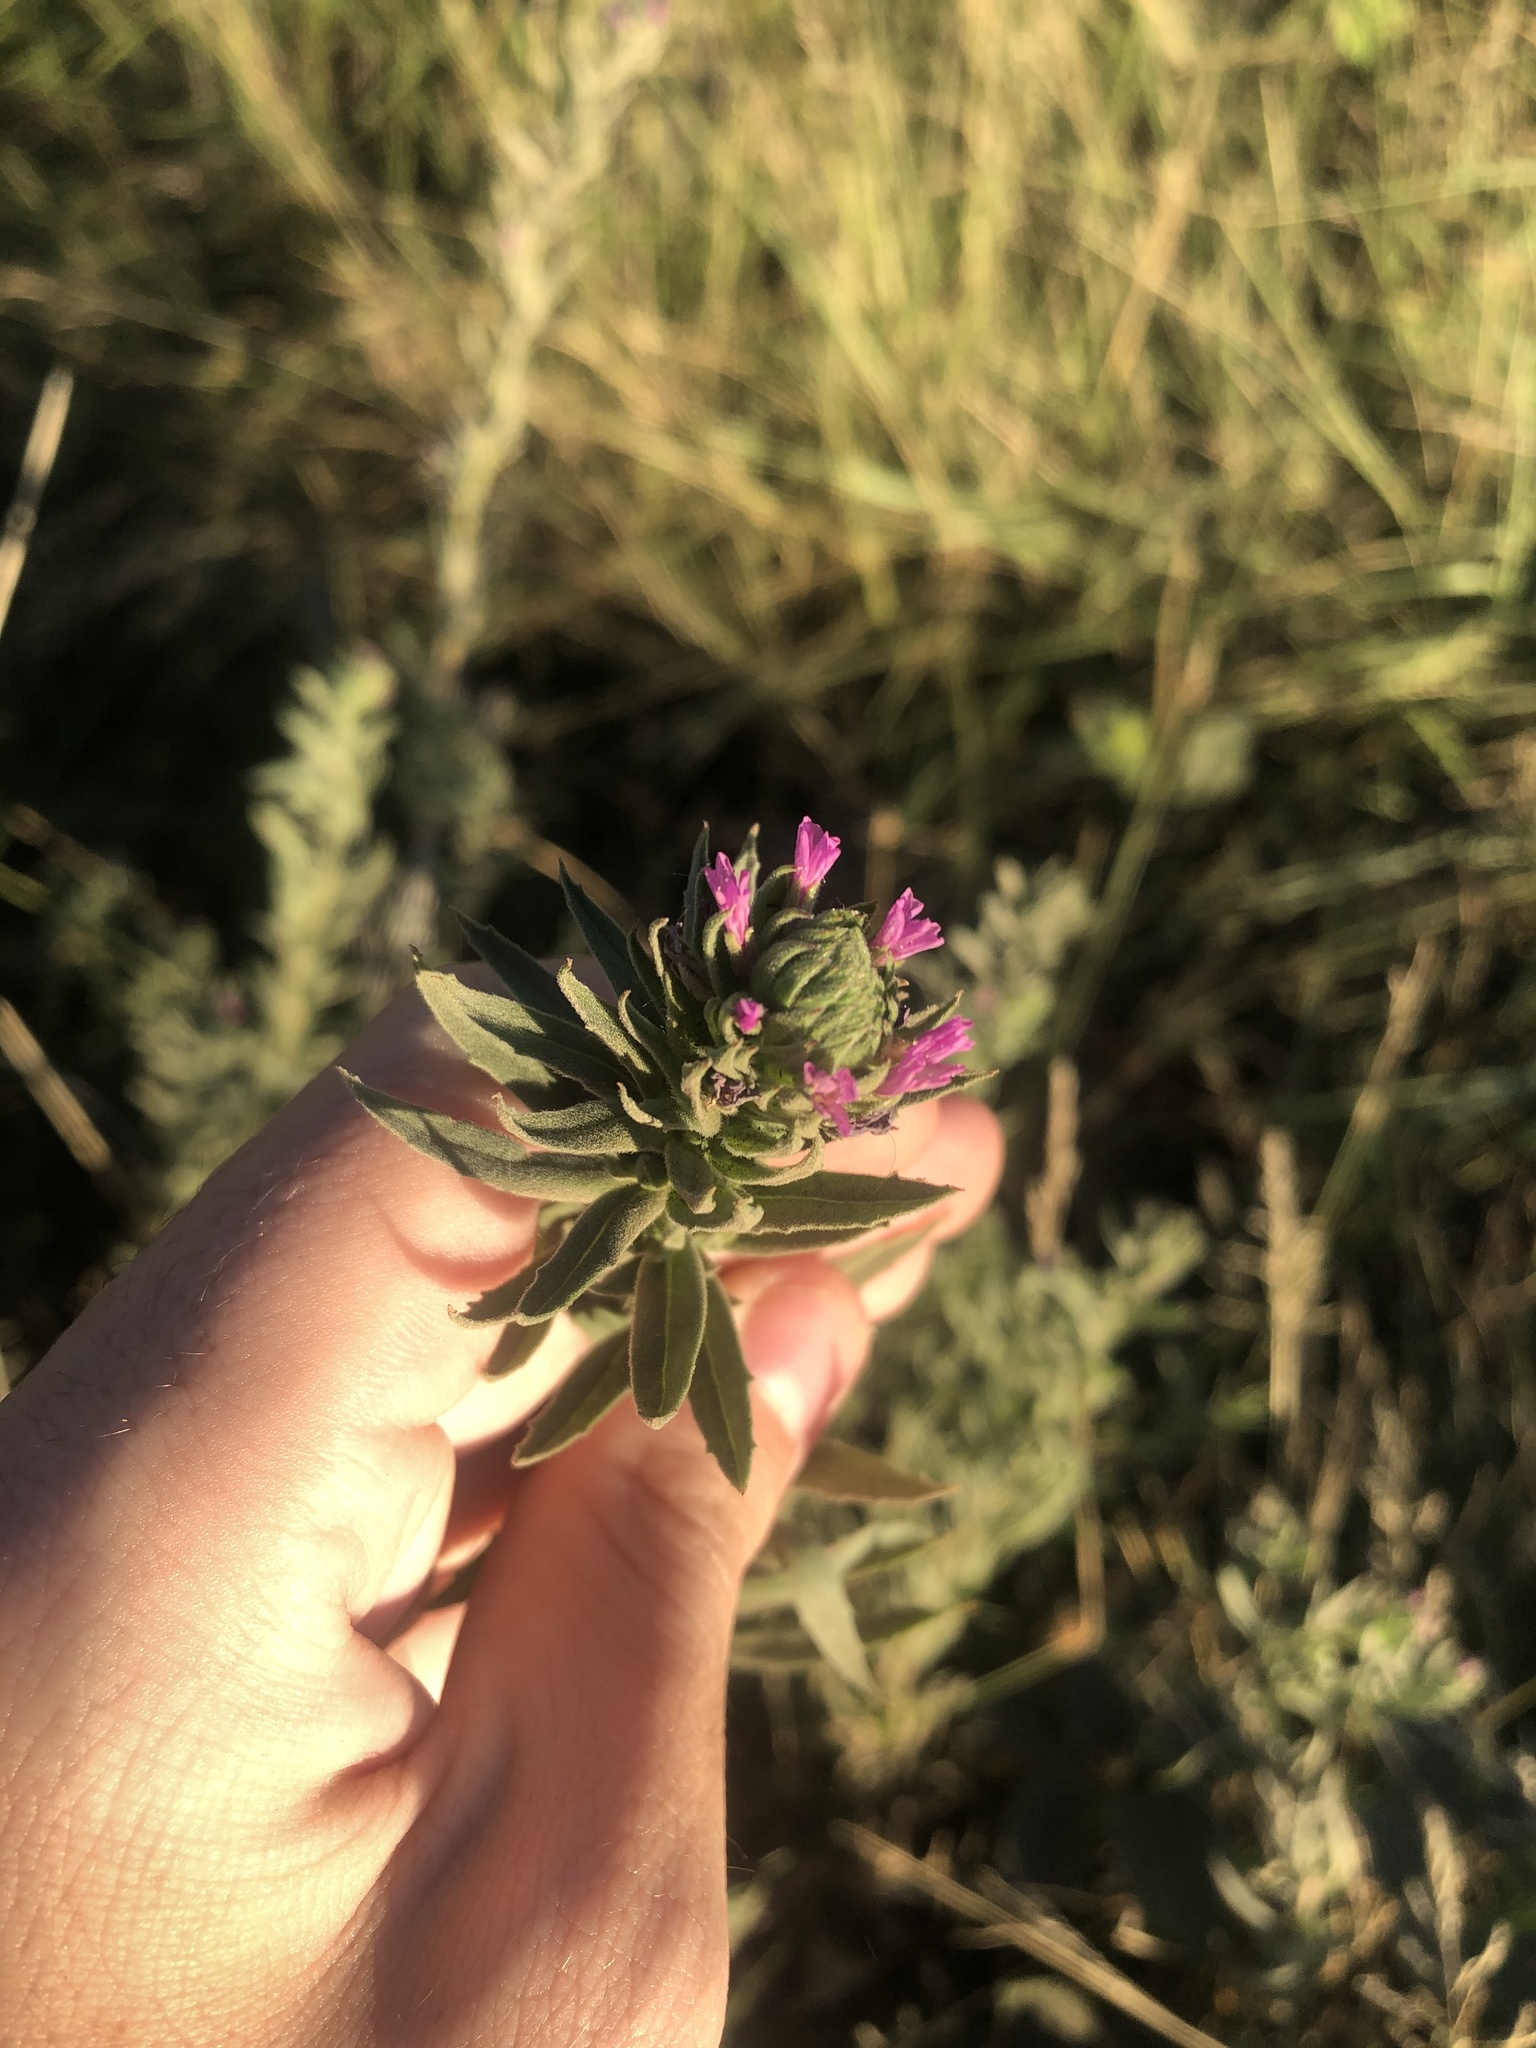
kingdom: Plantae
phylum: Tracheophyta
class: Magnoliopsida
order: Myrtales
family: Onagraceae
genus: Epilobium
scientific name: Epilobium densiflorum
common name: Dense spike-primrose
